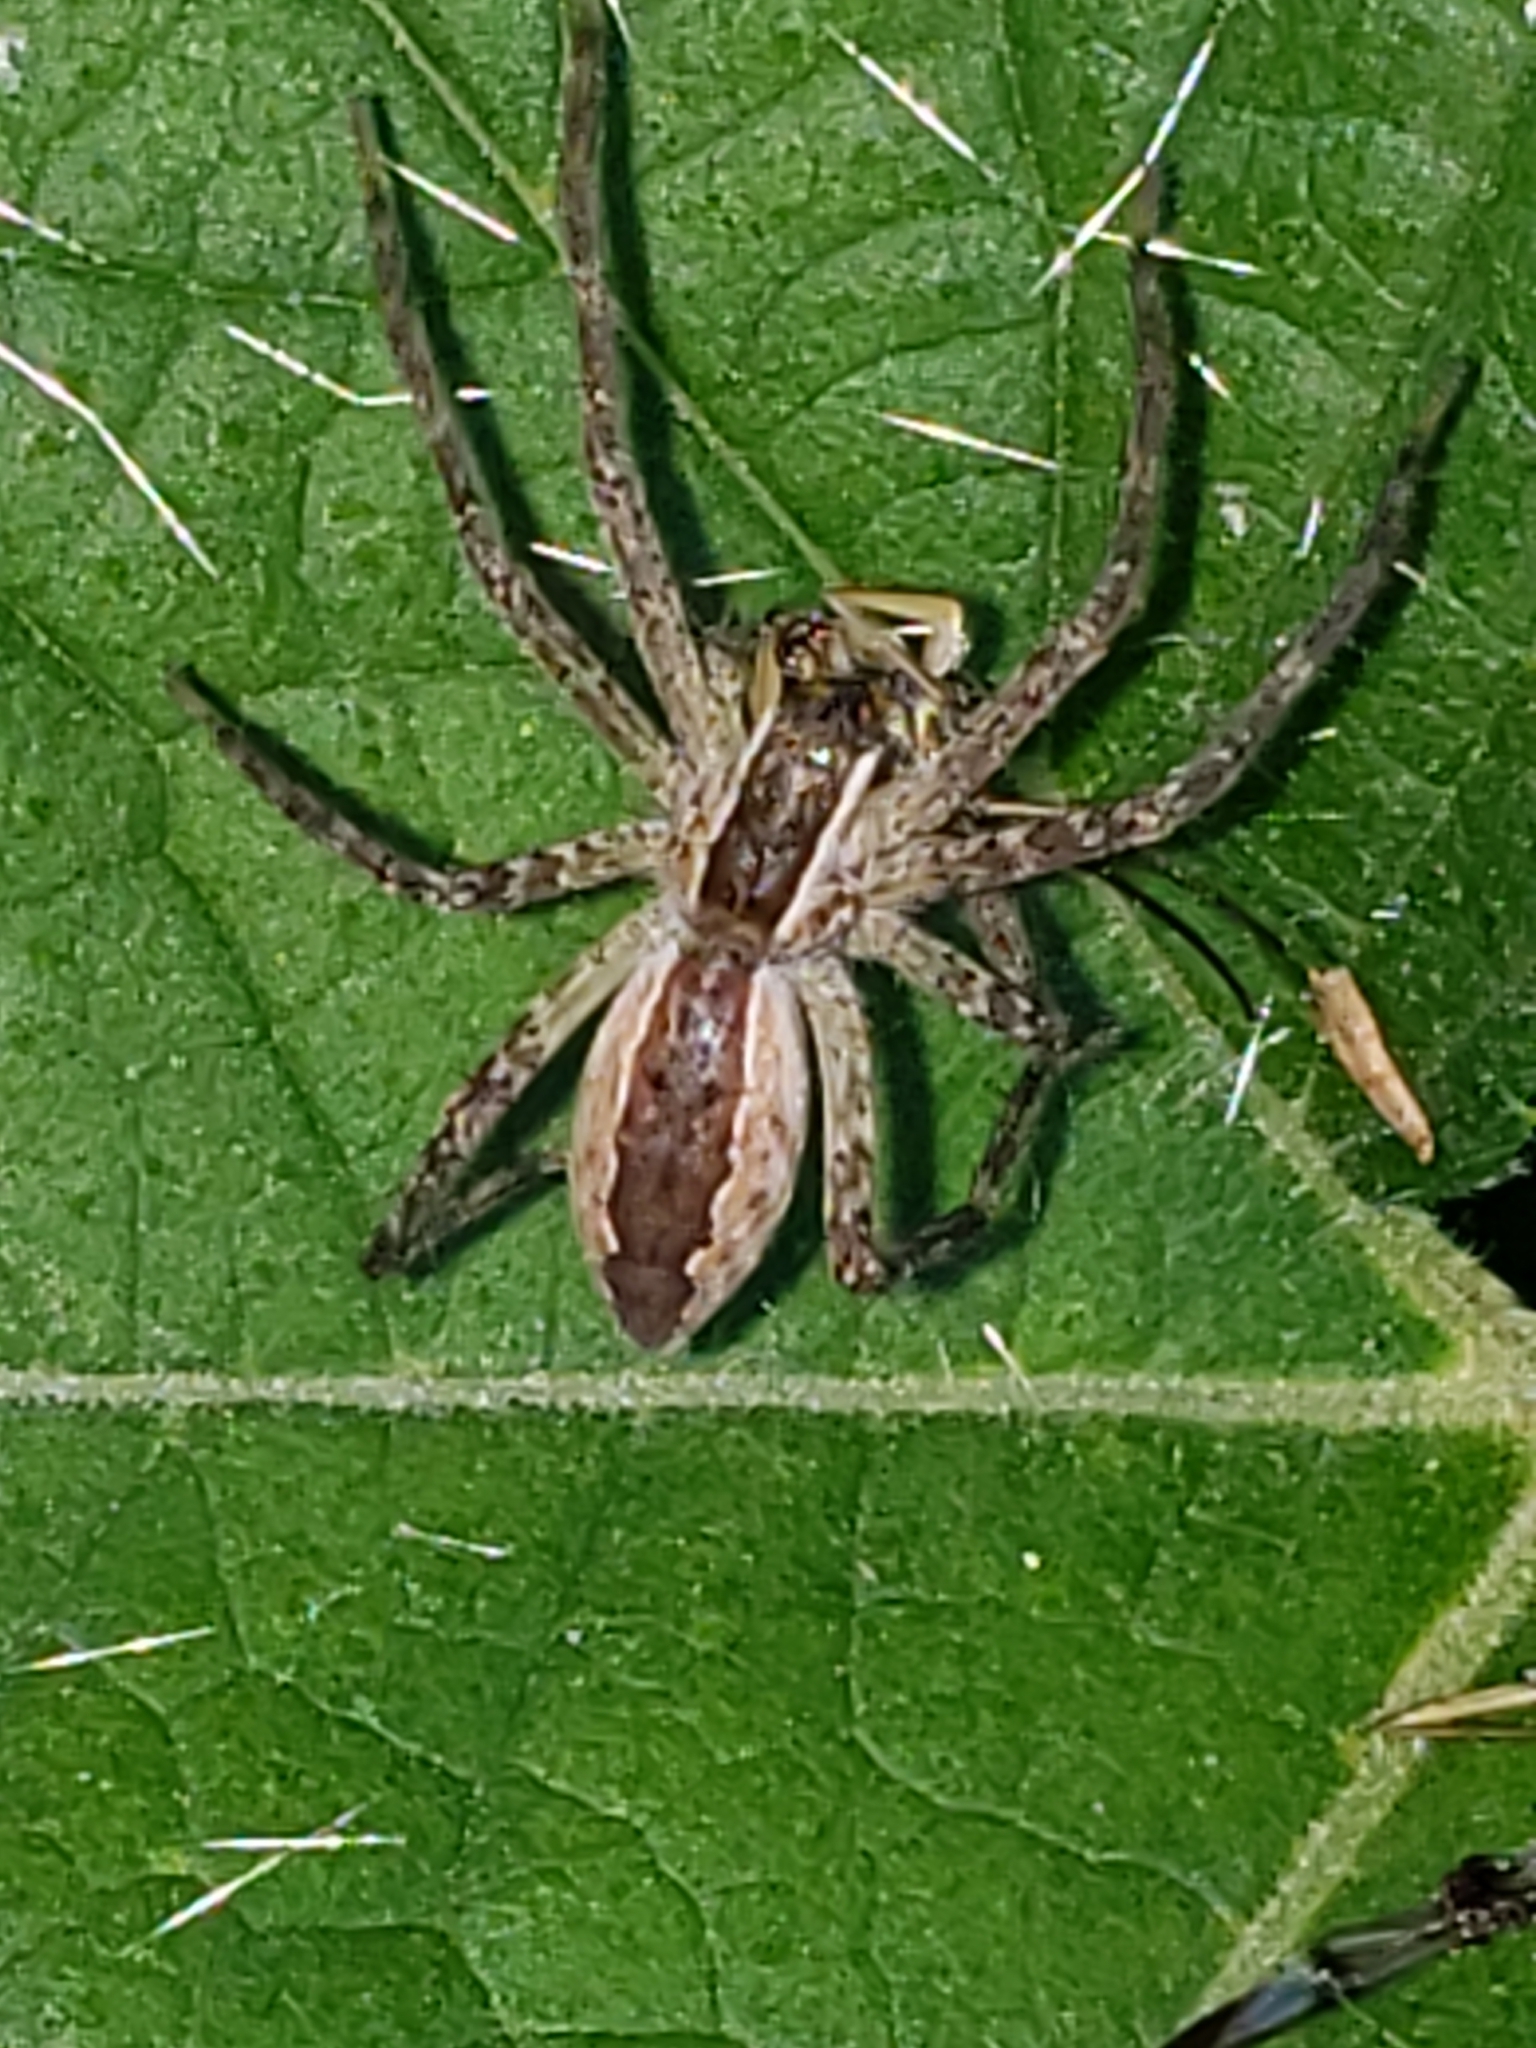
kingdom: Animalia
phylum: Arthropoda
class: Arachnida
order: Araneae
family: Pisauridae
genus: Pisaurina
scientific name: Pisaurina mira
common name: American nursery web spider
